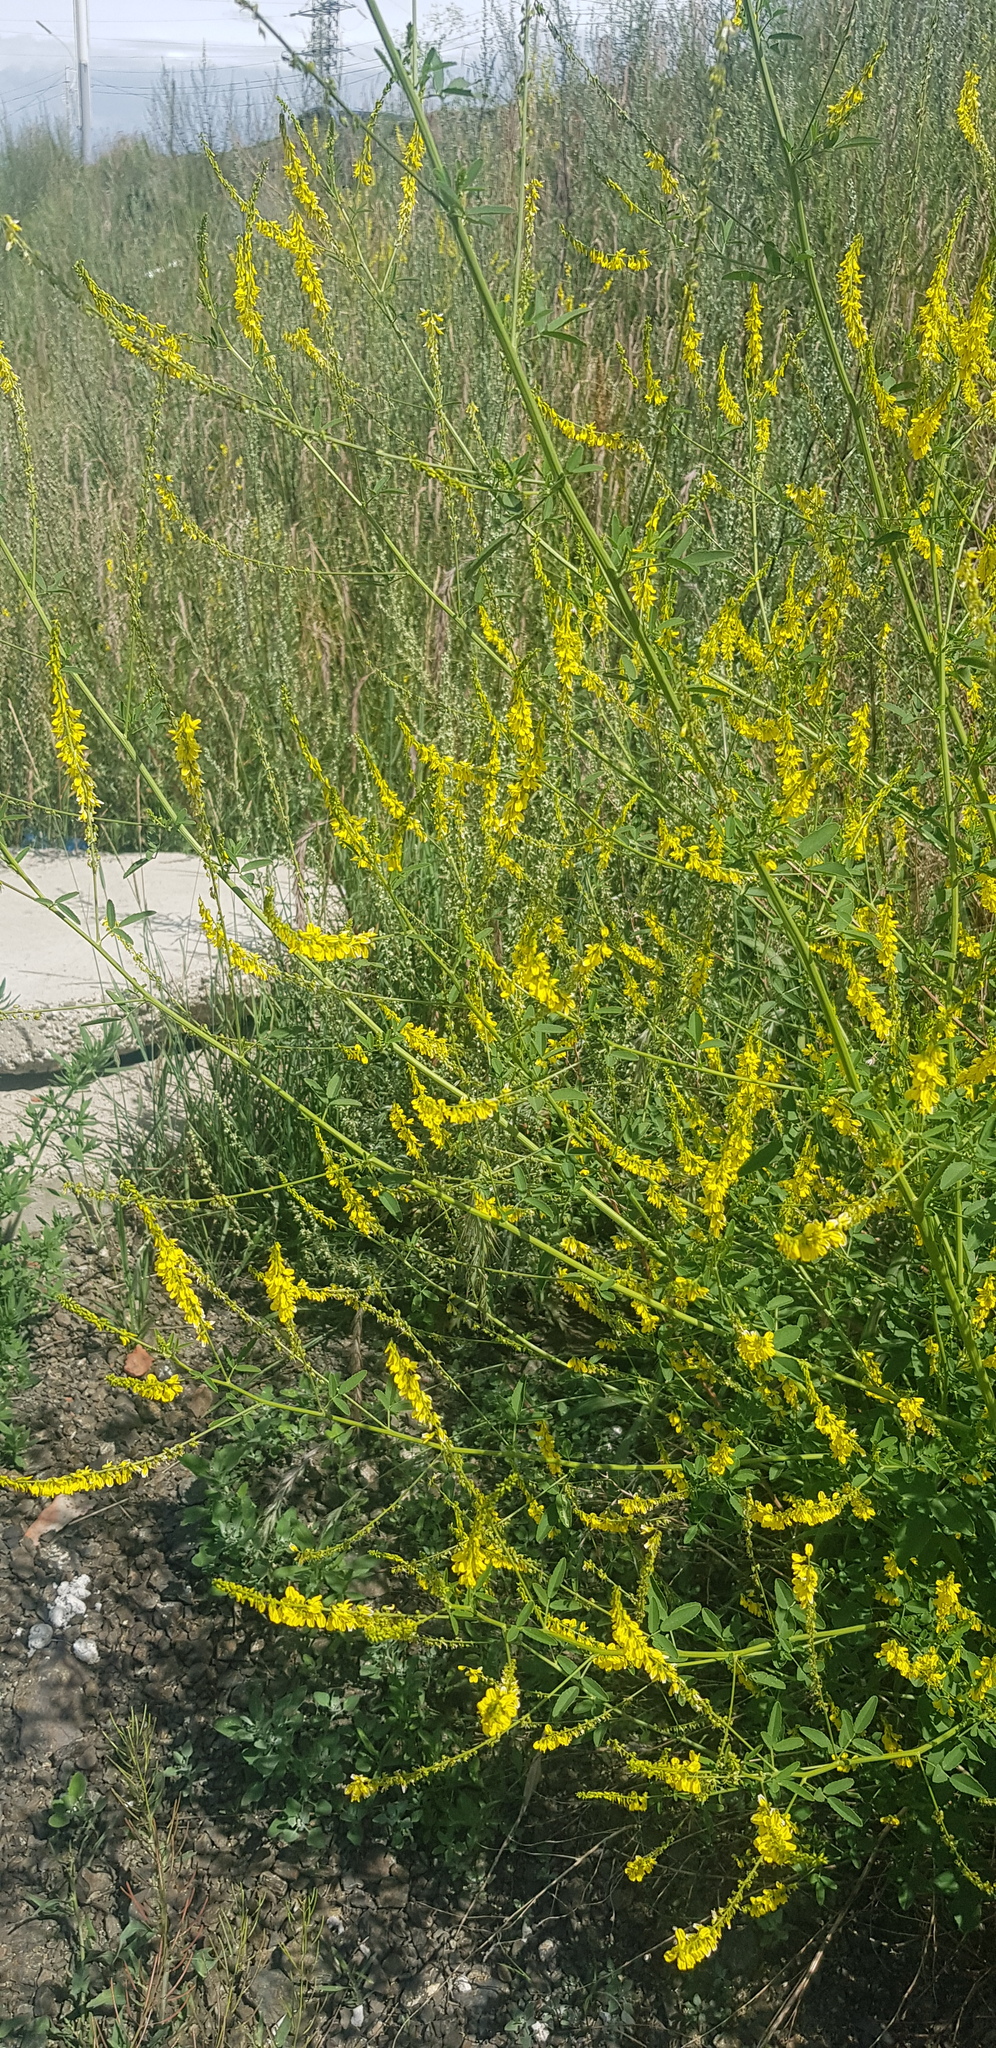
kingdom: Plantae
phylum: Tracheophyta
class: Magnoliopsida
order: Fabales
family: Fabaceae
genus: Melilotus
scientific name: Melilotus suaveolens
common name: Daghestan sweet-clover
